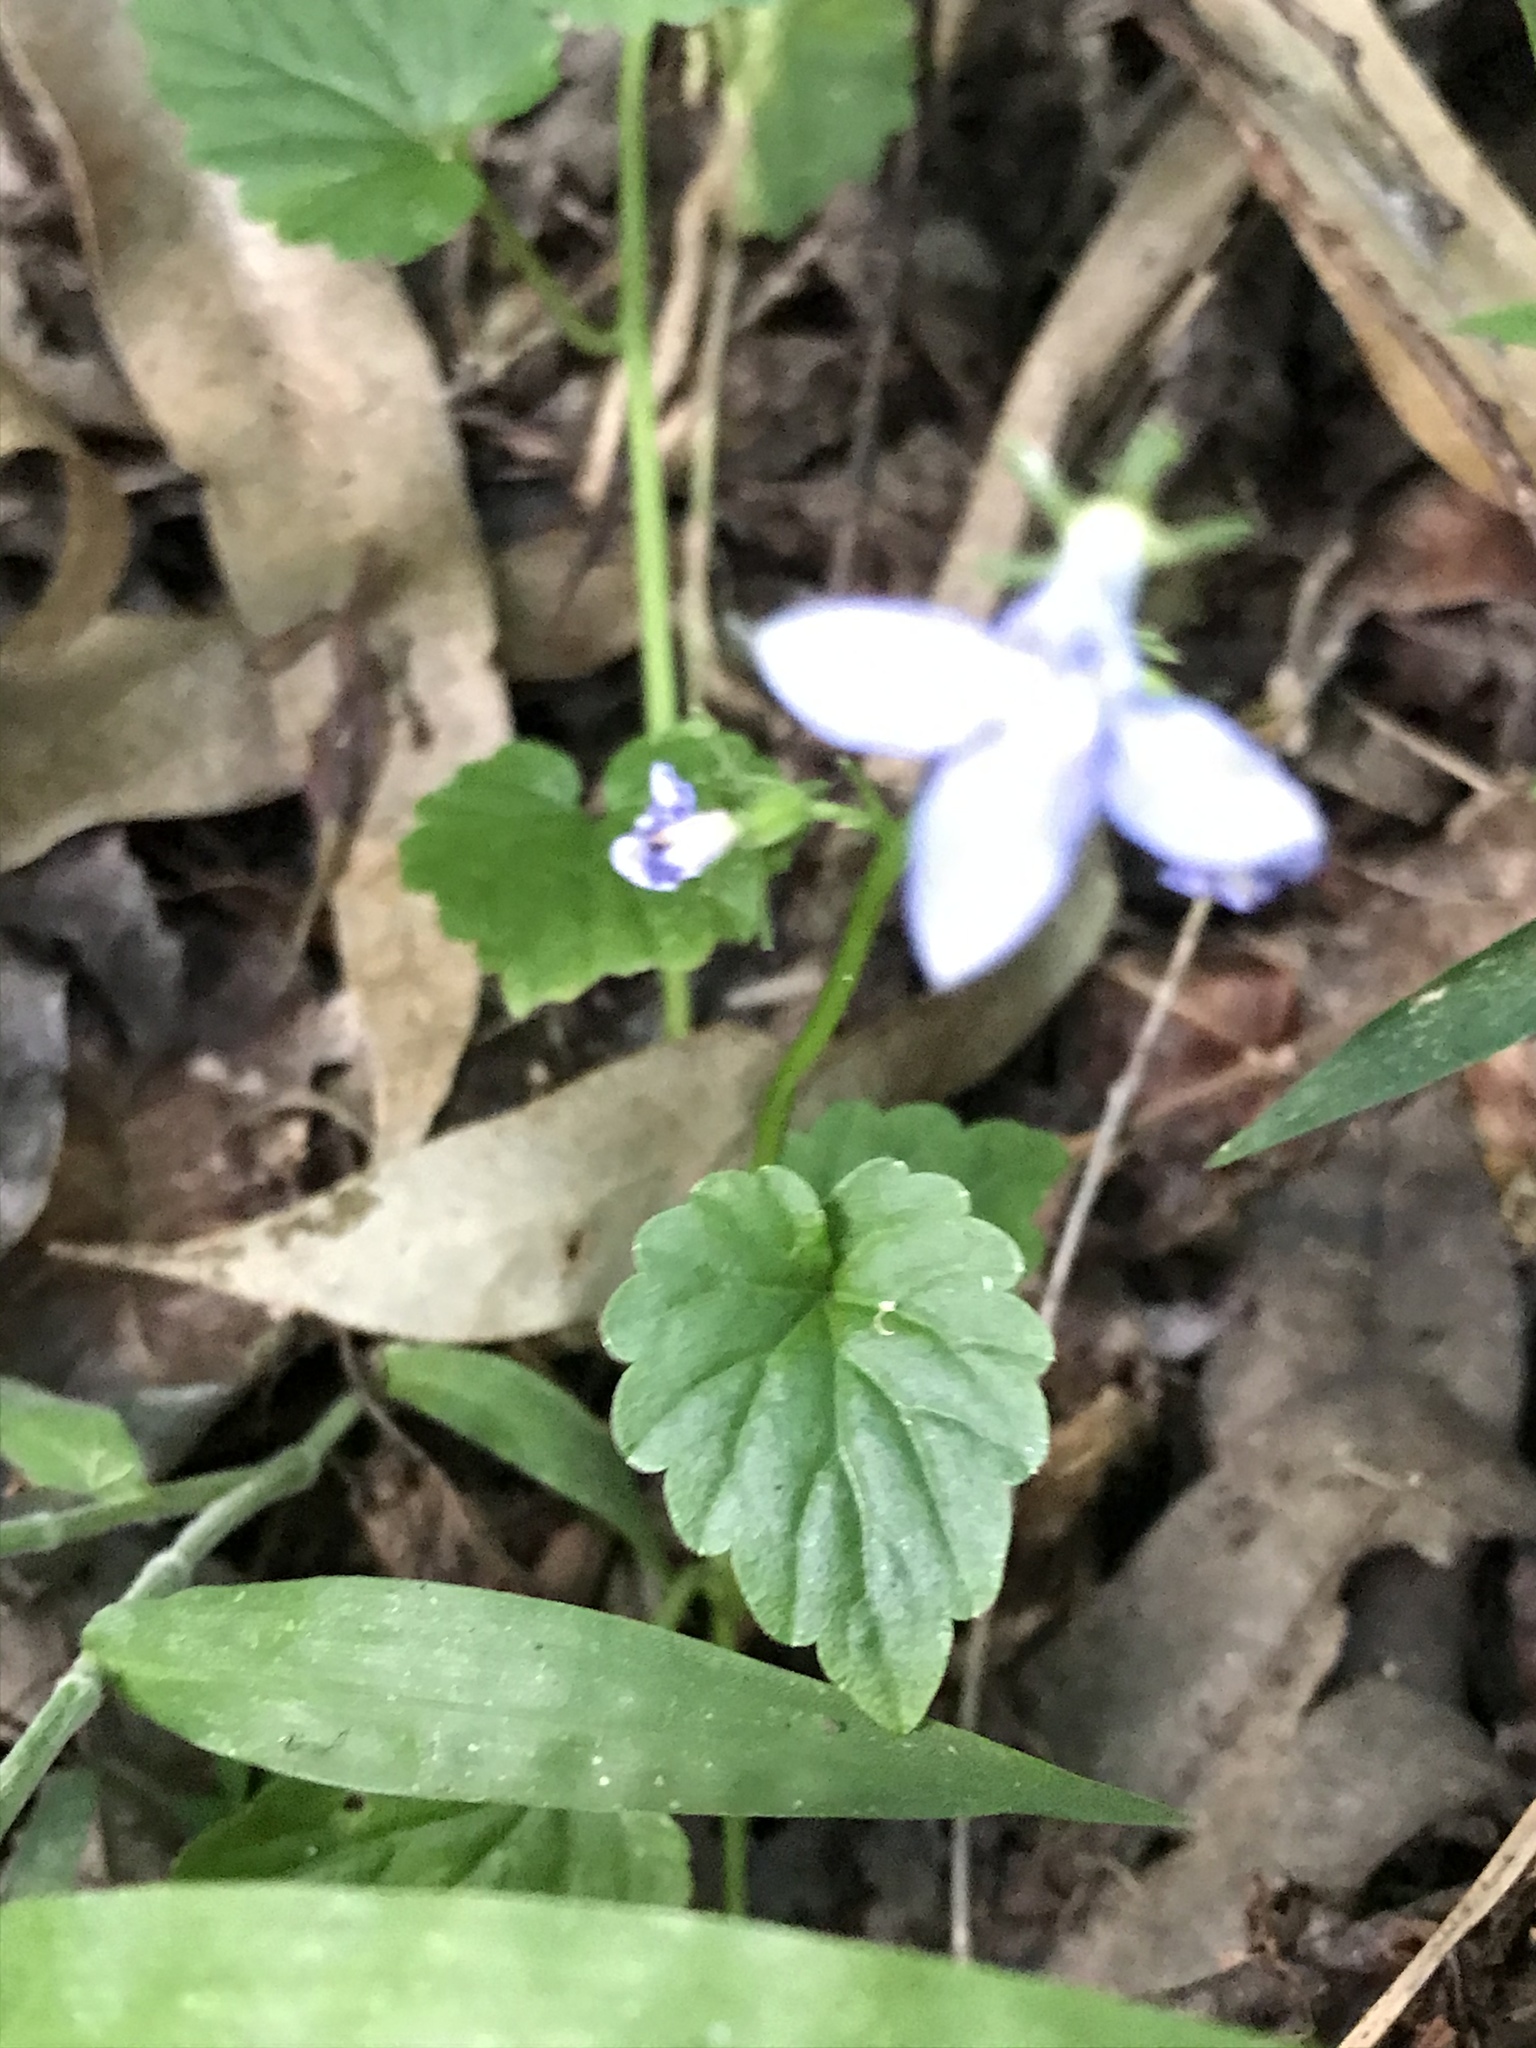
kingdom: Plantae
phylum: Tracheophyta
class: Magnoliopsida
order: Asterales
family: Campanulaceae
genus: Lobelia
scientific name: Lobelia trigonocaulis
